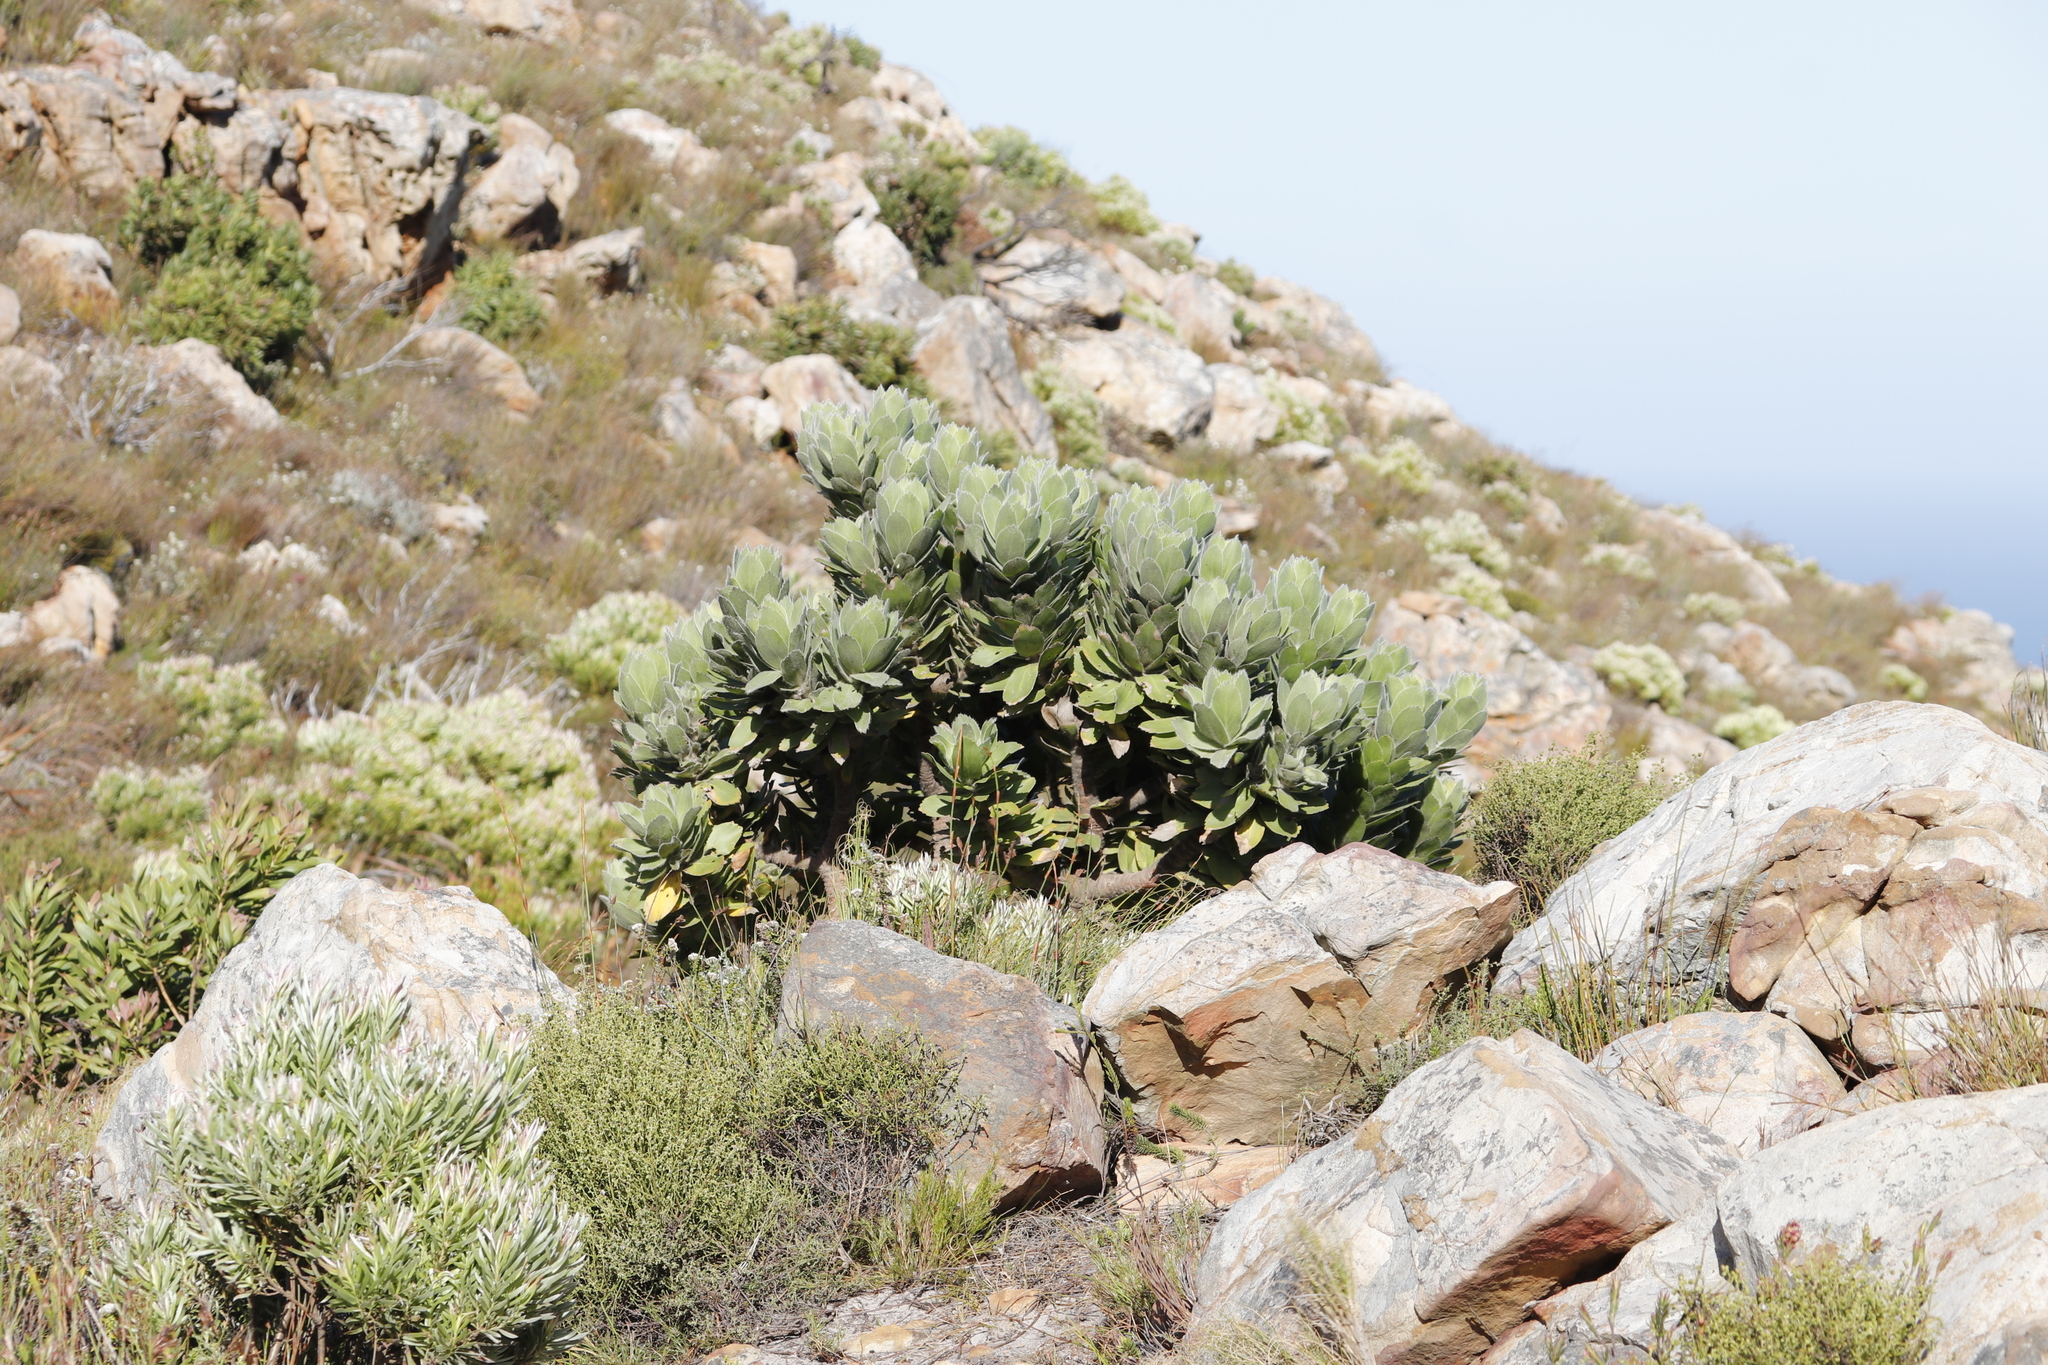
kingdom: Plantae
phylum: Tracheophyta
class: Magnoliopsida
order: Proteales
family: Proteaceae
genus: Leucospermum
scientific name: Leucospermum conocarpodendron
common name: Tree pincushion
